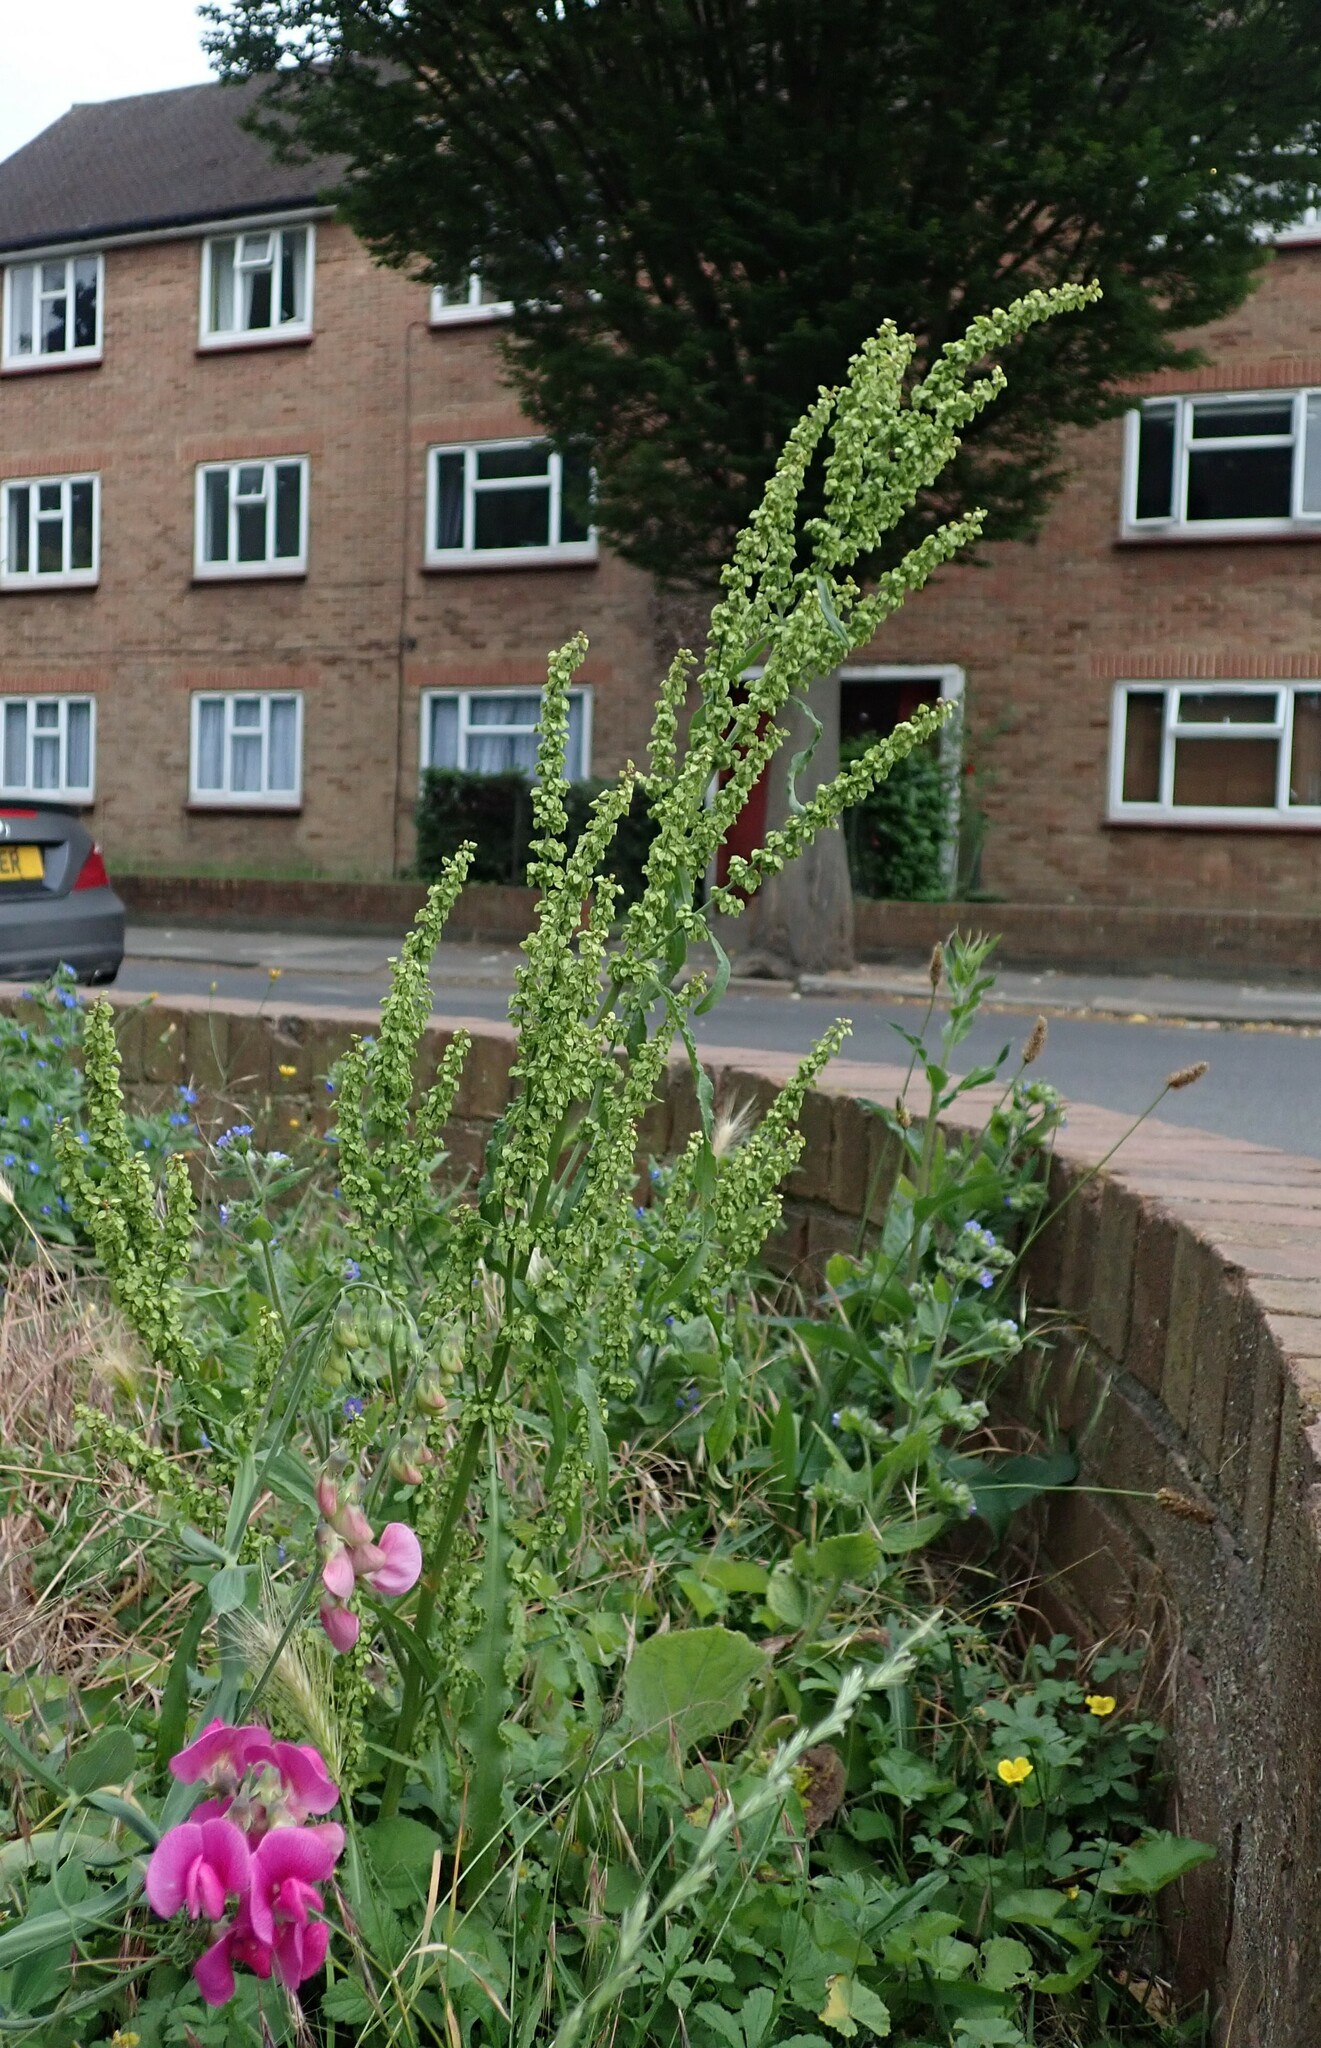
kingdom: Plantae
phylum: Tracheophyta
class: Magnoliopsida
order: Caryophyllales
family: Polygonaceae
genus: Rumex
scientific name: Rumex crispus
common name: Curled dock
